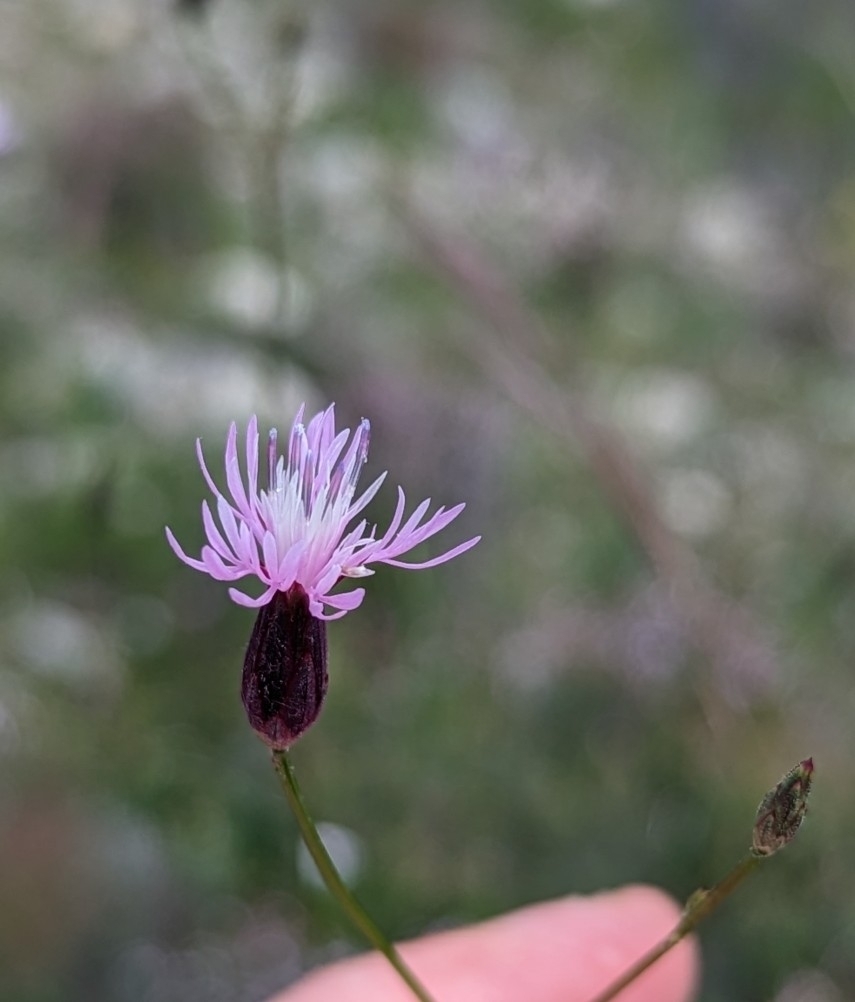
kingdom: Plantae
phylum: Tracheophyta
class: Magnoliopsida
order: Asterales
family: Asteraceae
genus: Crupina
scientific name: Crupina vulgaris
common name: Common crupina
